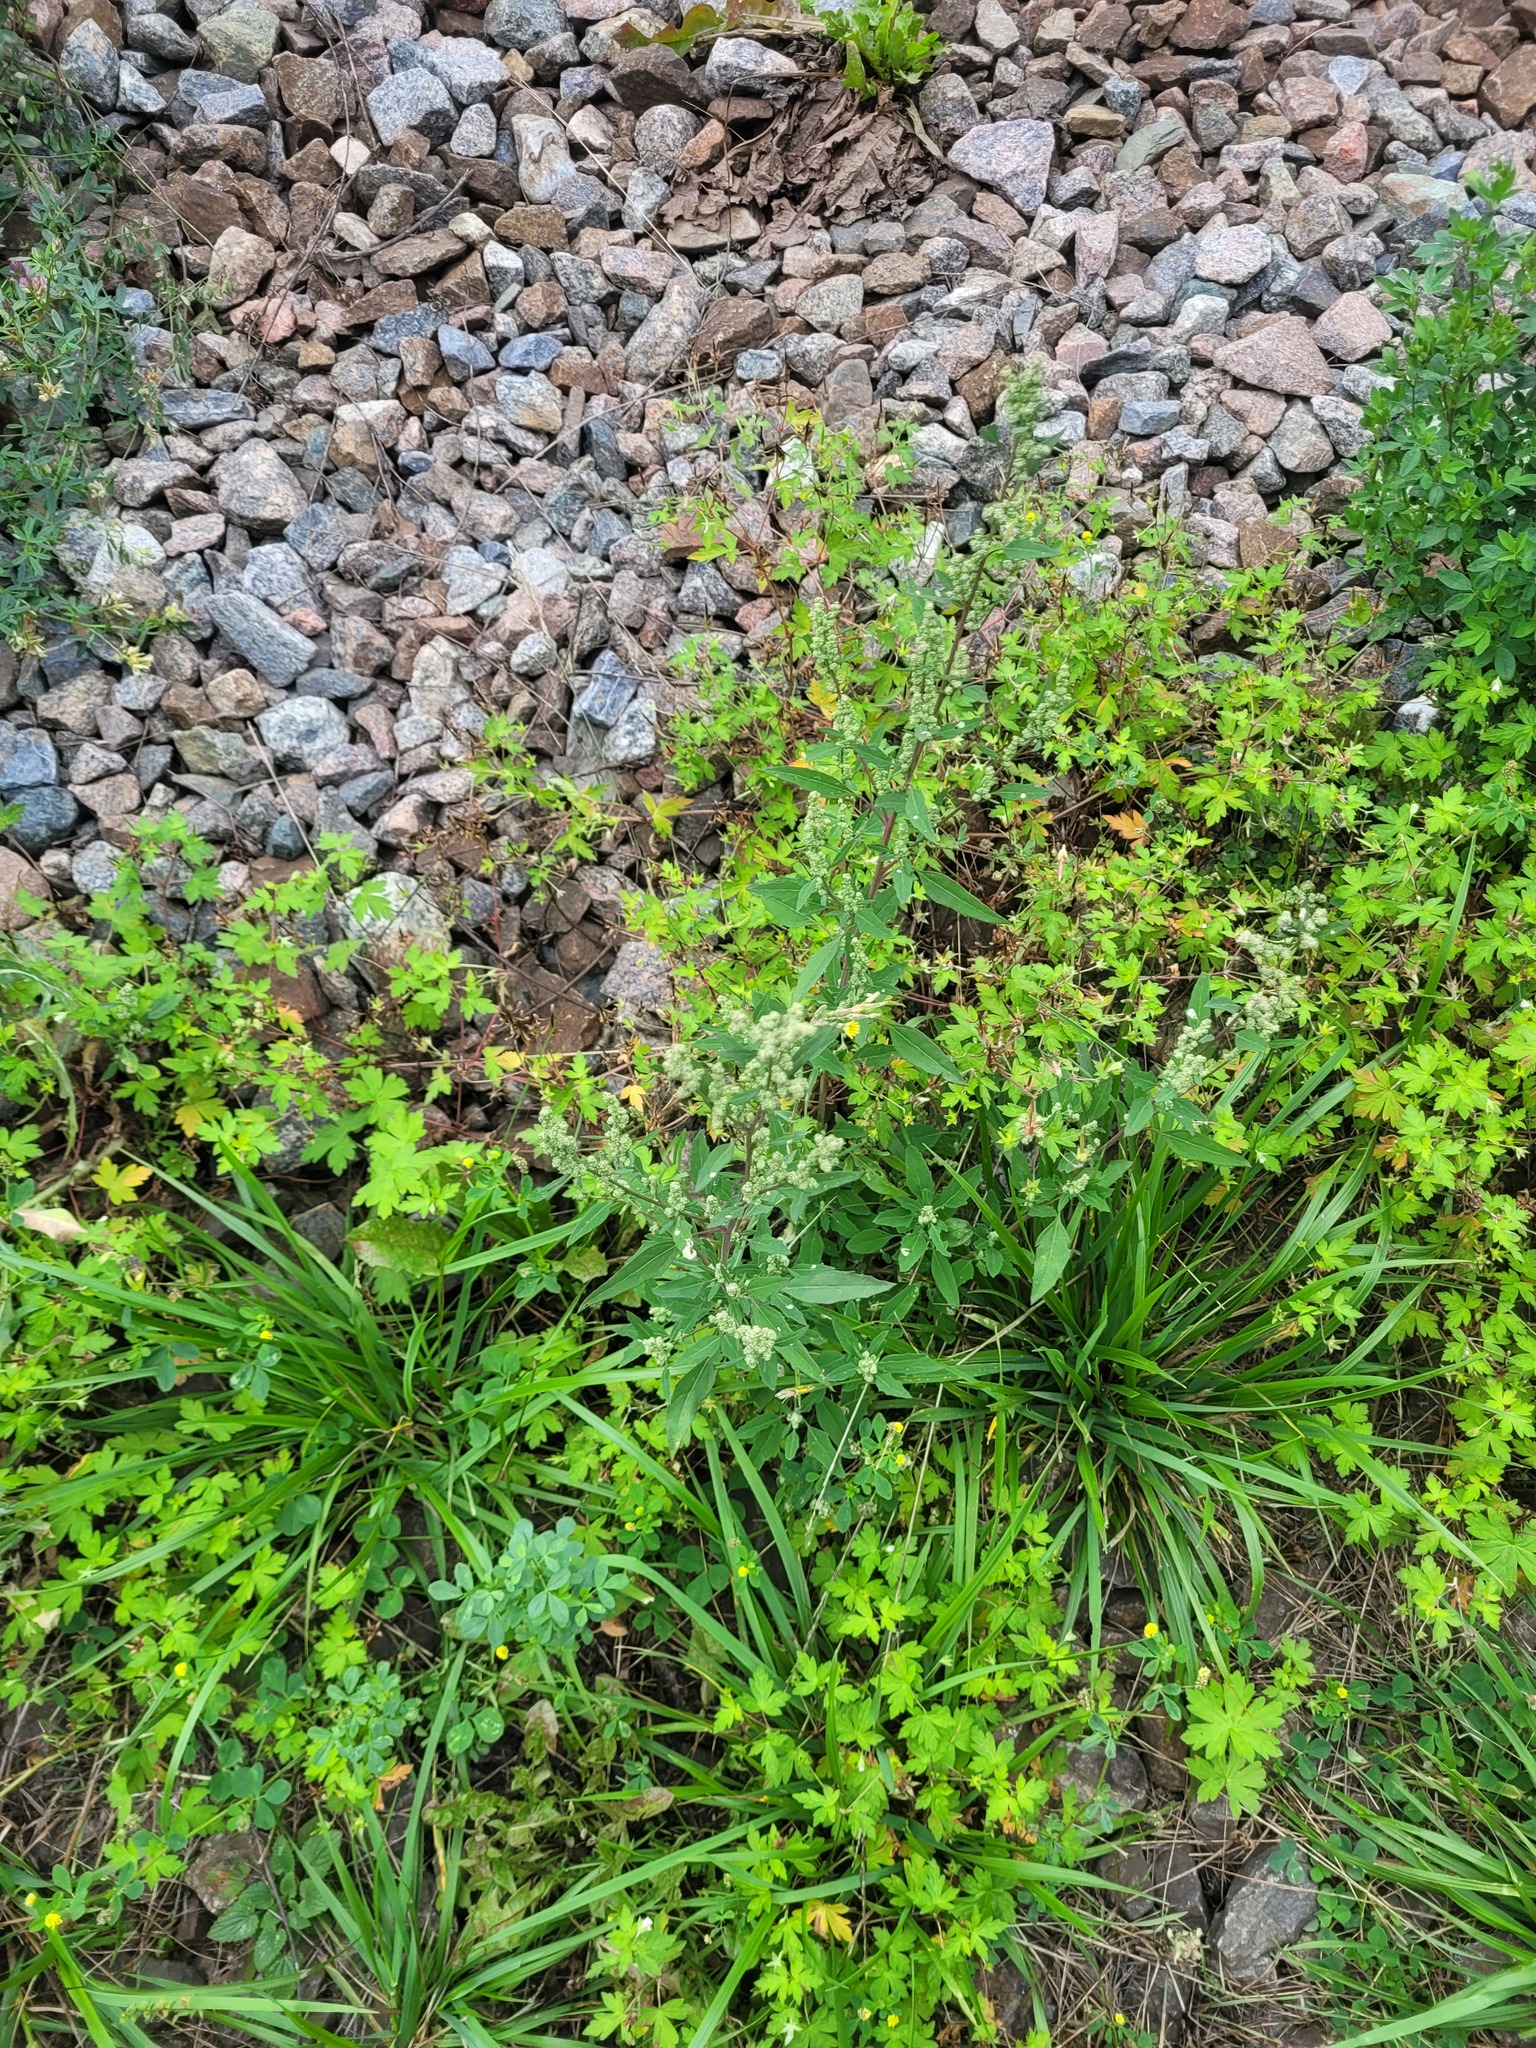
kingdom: Plantae
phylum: Tracheophyta
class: Magnoliopsida
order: Caryophyllales
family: Amaranthaceae
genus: Chenopodium
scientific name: Chenopodium betaceum
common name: Striped goosefoot
